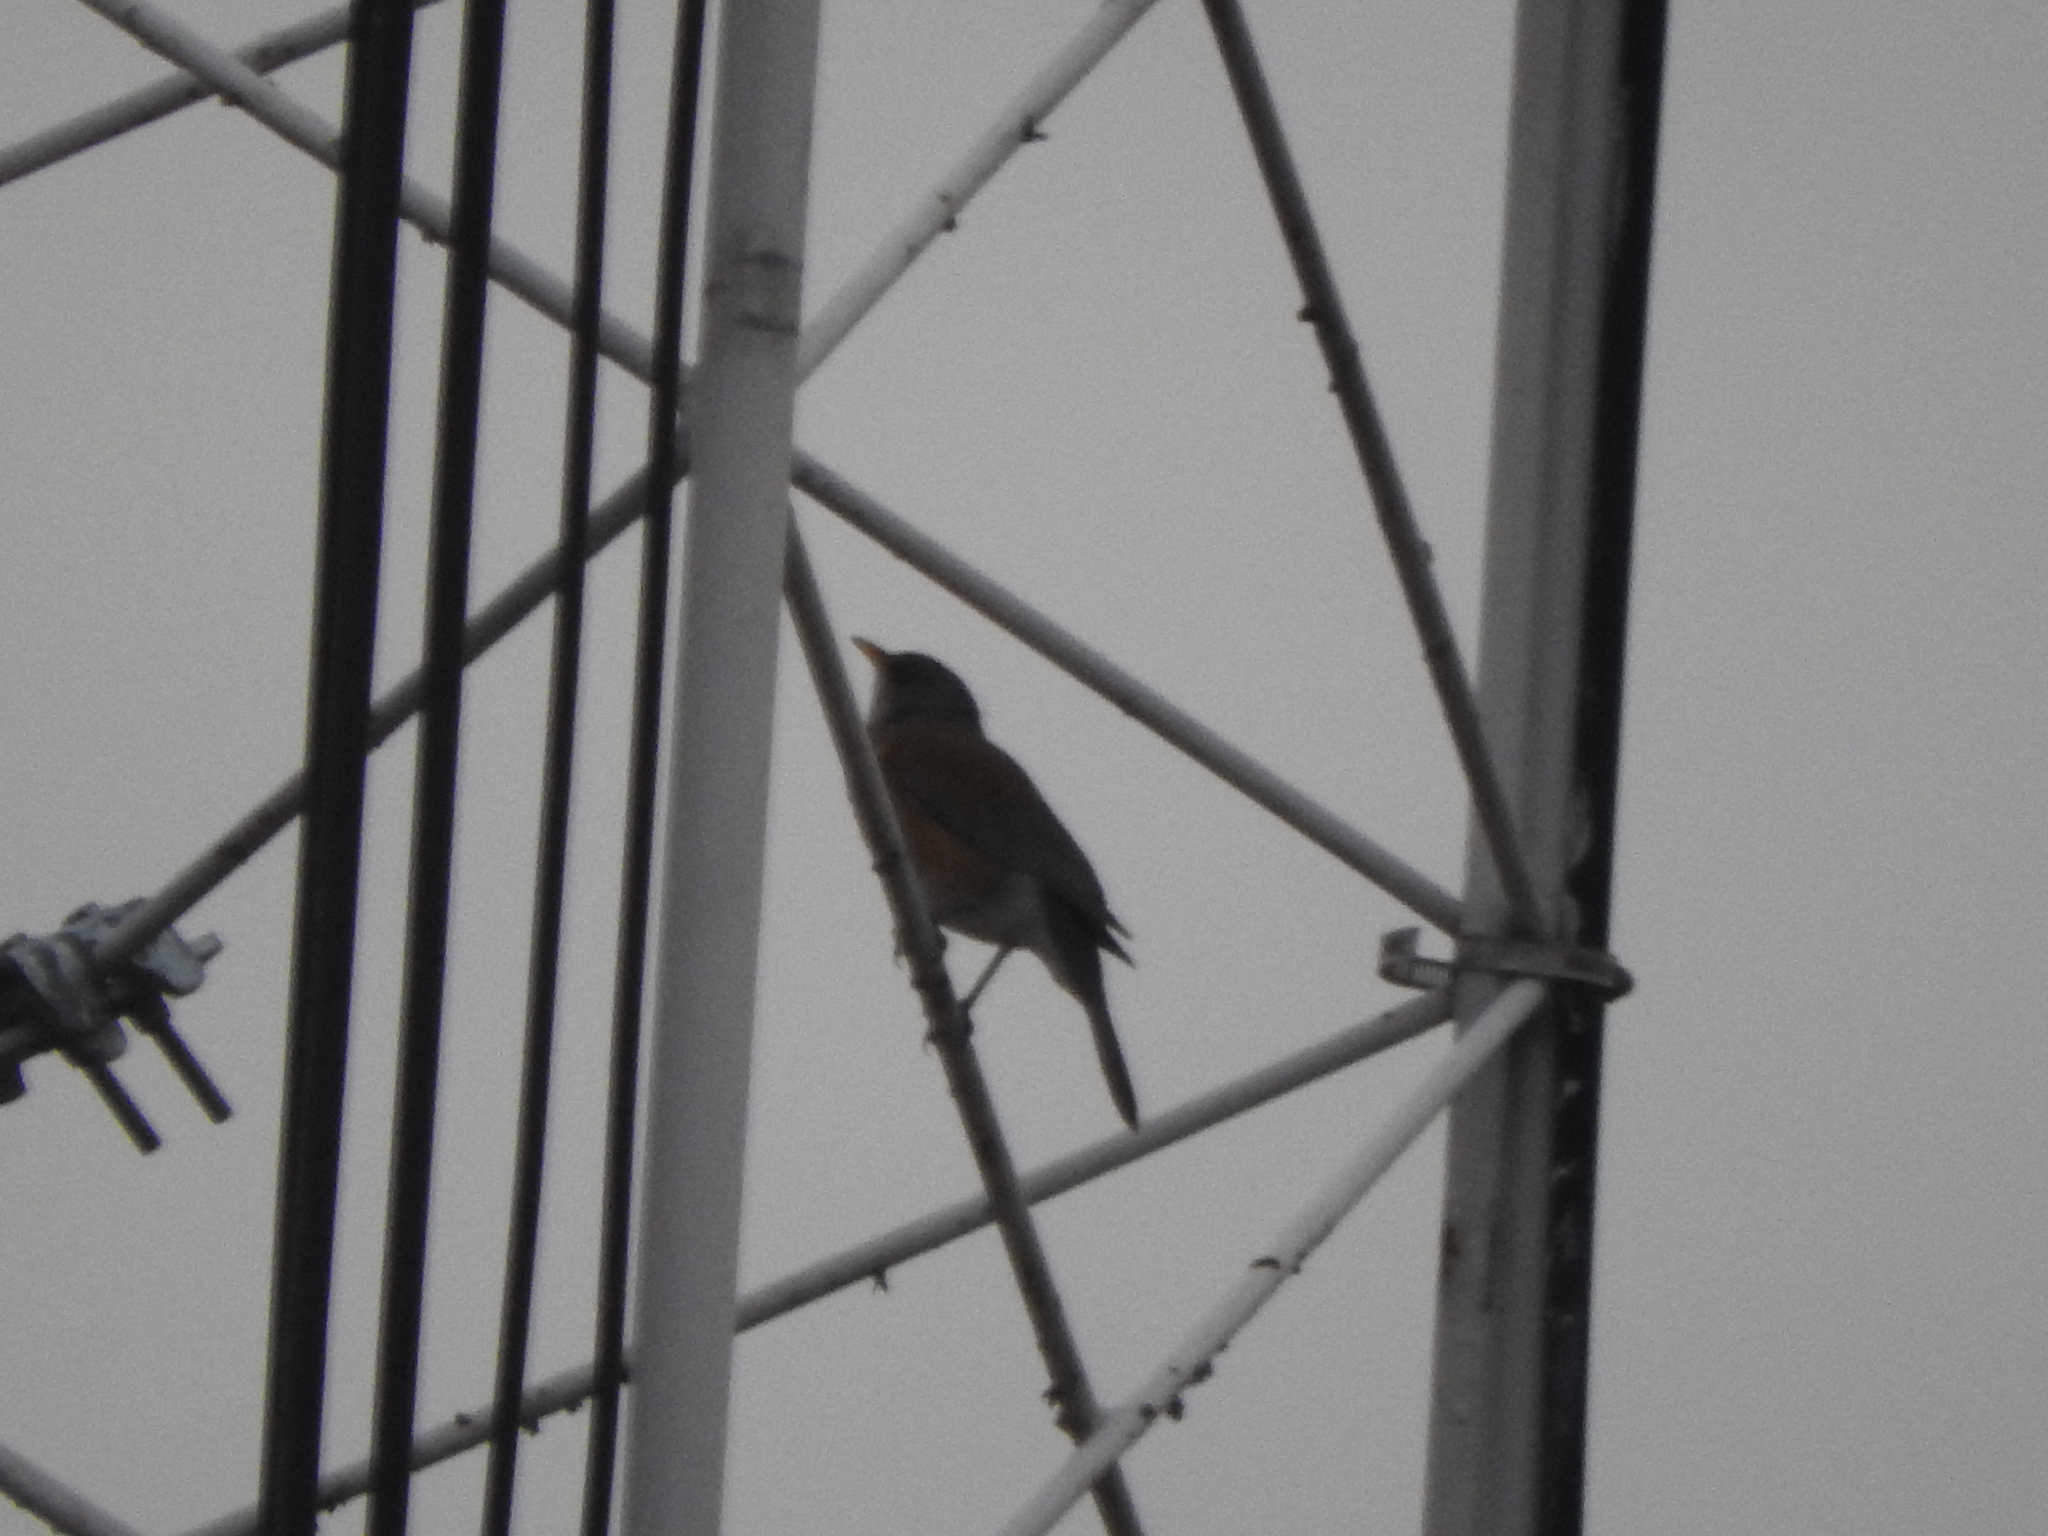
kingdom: Animalia
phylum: Chordata
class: Aves
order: Passeriformes
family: Turdidae
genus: Turdus
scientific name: Turdus rufopalliatus
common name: Rufous-backed robin
